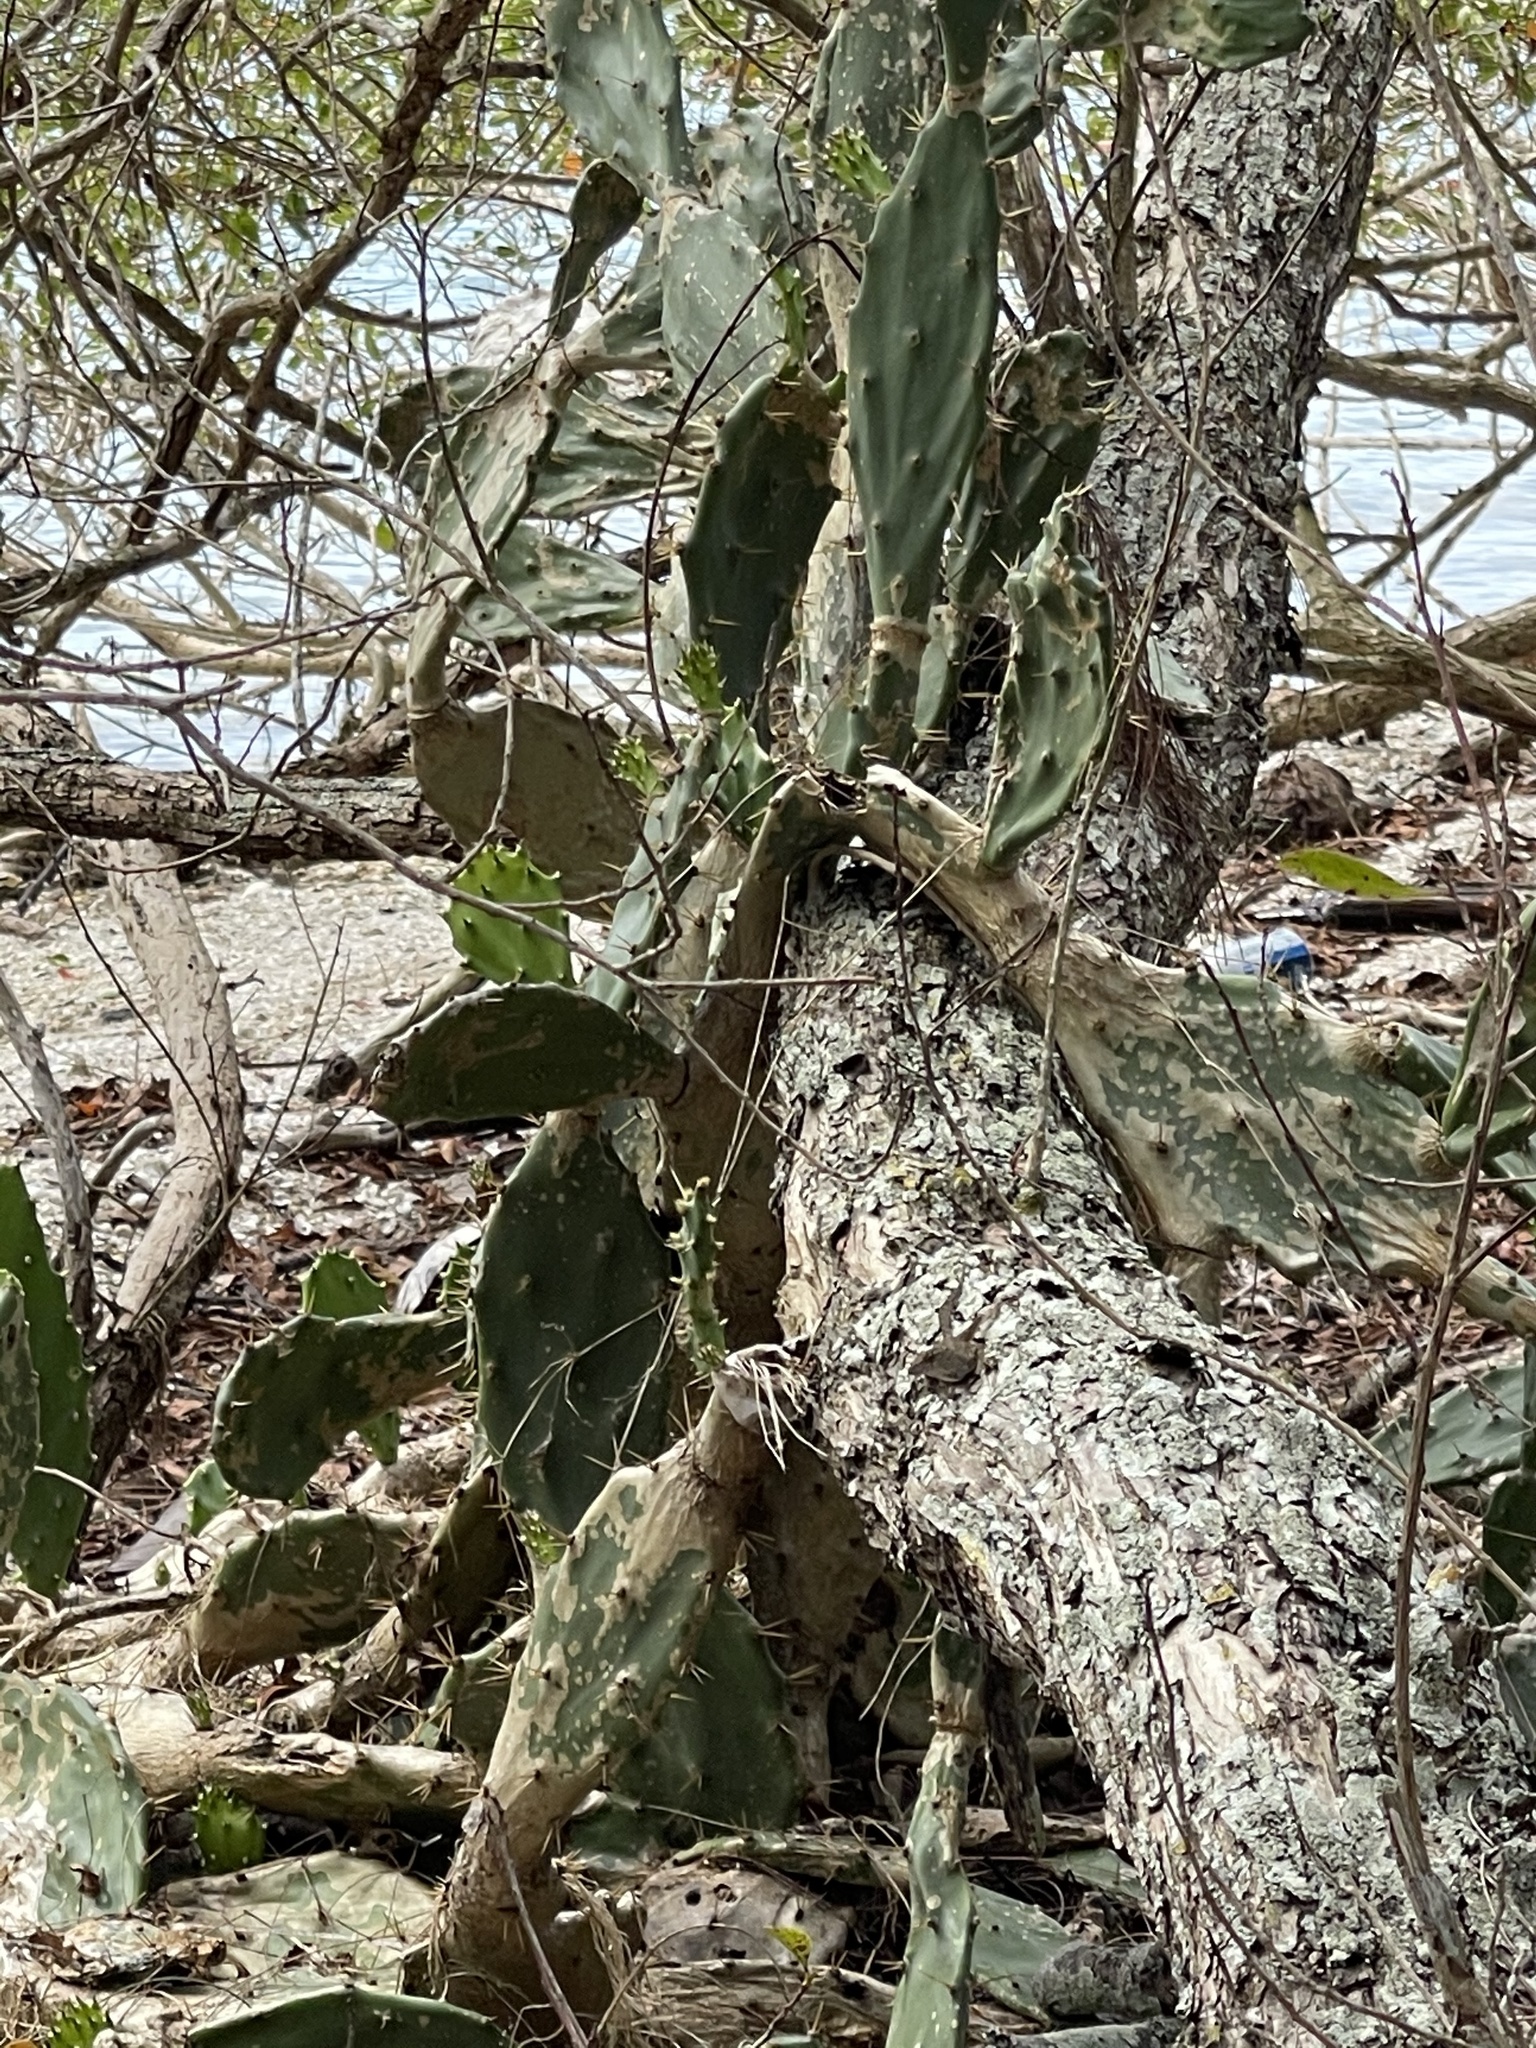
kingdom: Plantae
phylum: Tracheophyta
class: Magnoliopsida
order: Caryophyllales
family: Cactaceae
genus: Opuntia
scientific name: Opuntia stricta
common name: Erect pricklypear
